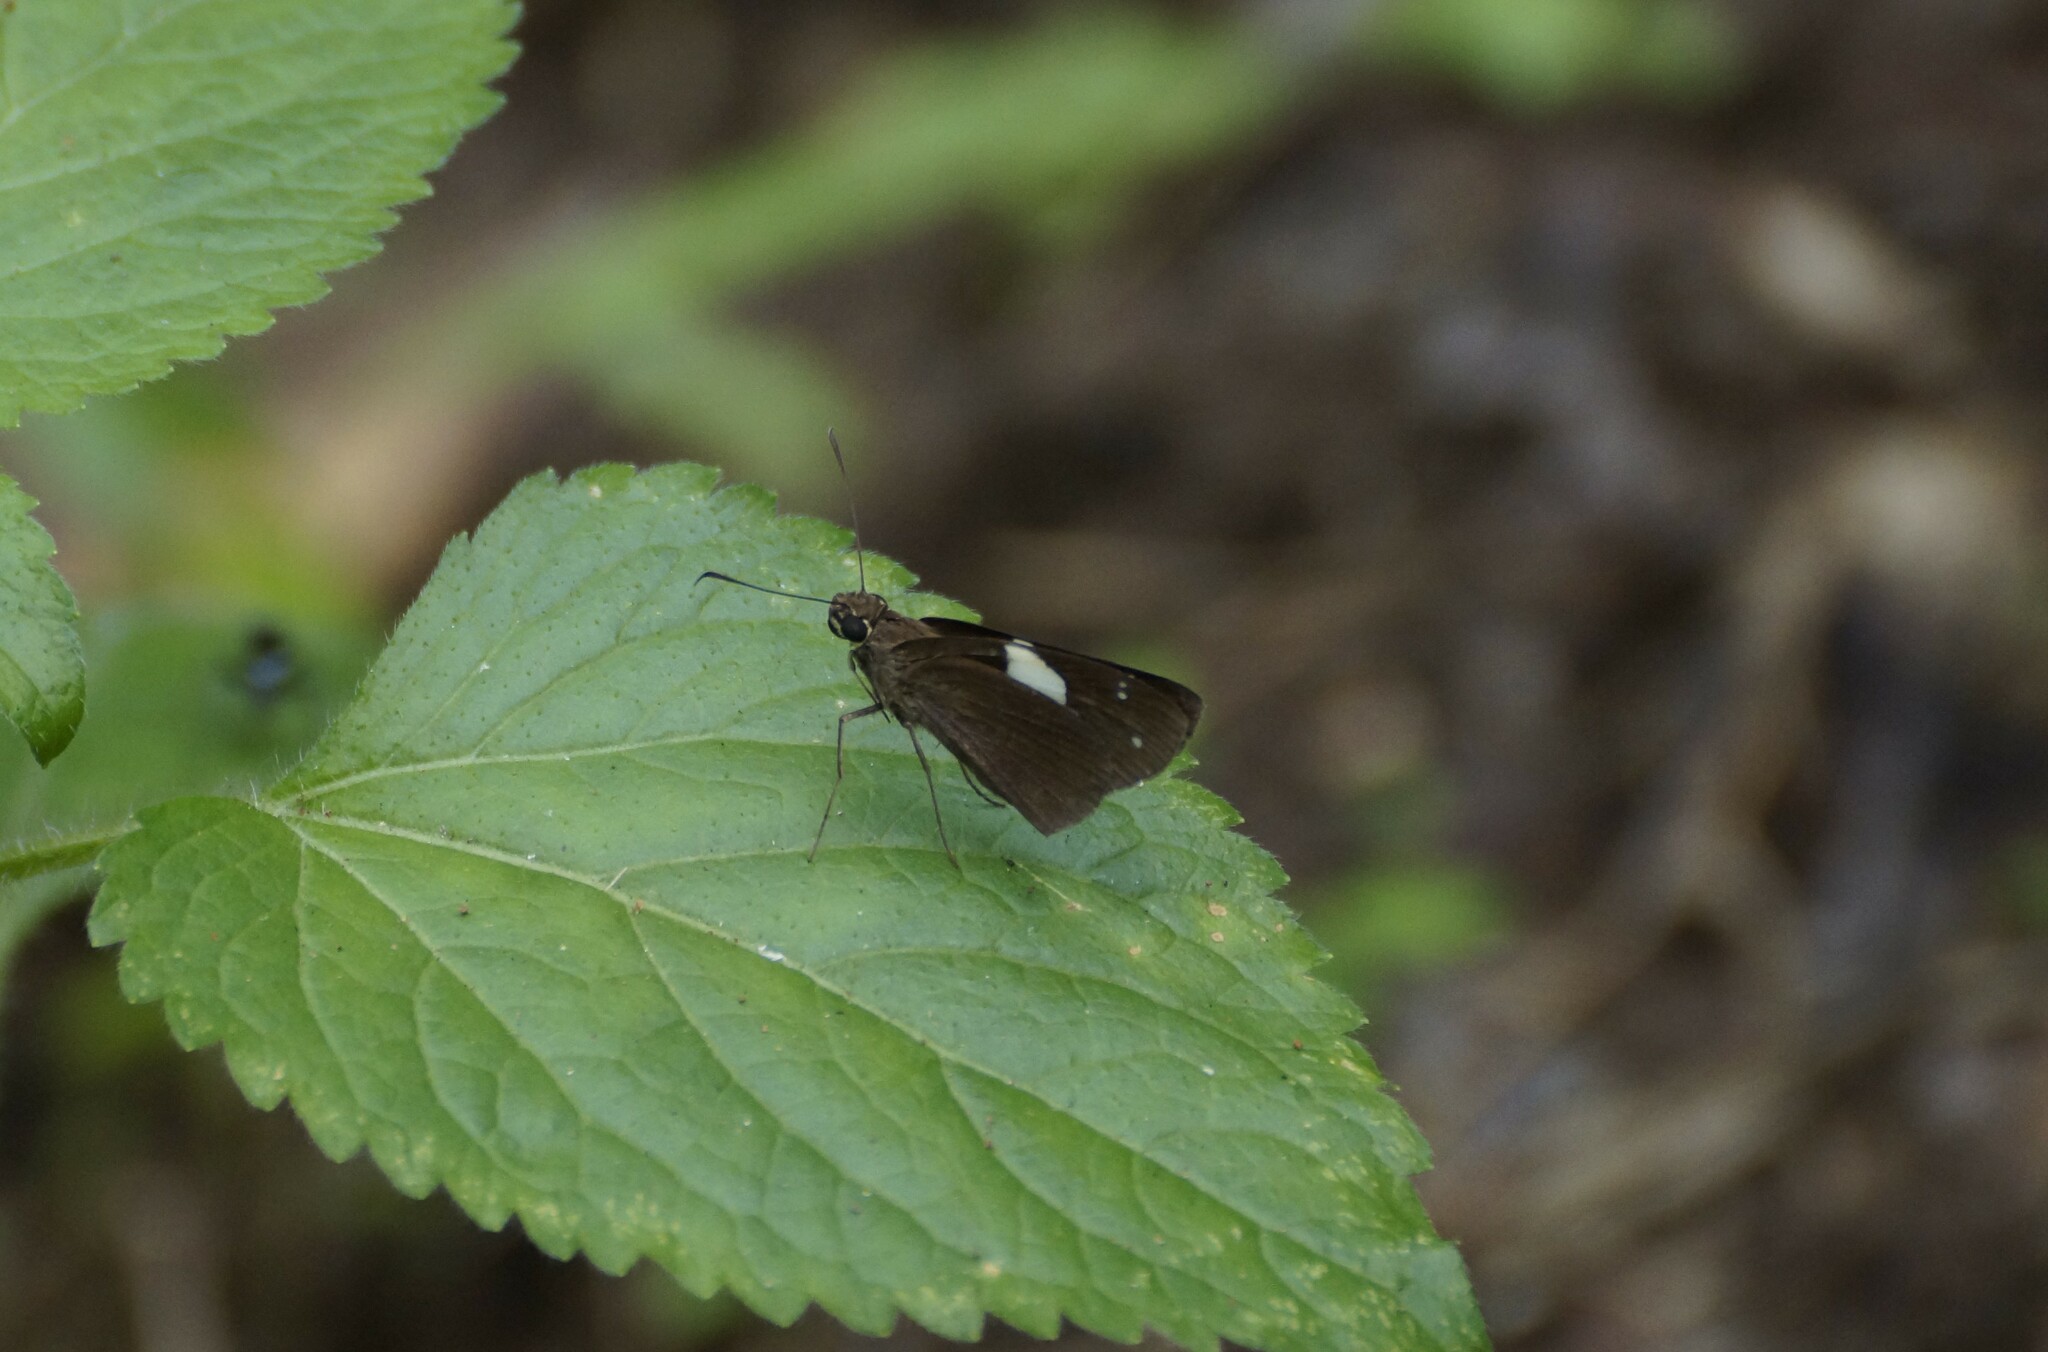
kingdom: Animalia
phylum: Arthropoda
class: Insecta
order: Lepidoptera
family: Hesperiidae
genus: Notocrypta
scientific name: Notocrypta waigensis
